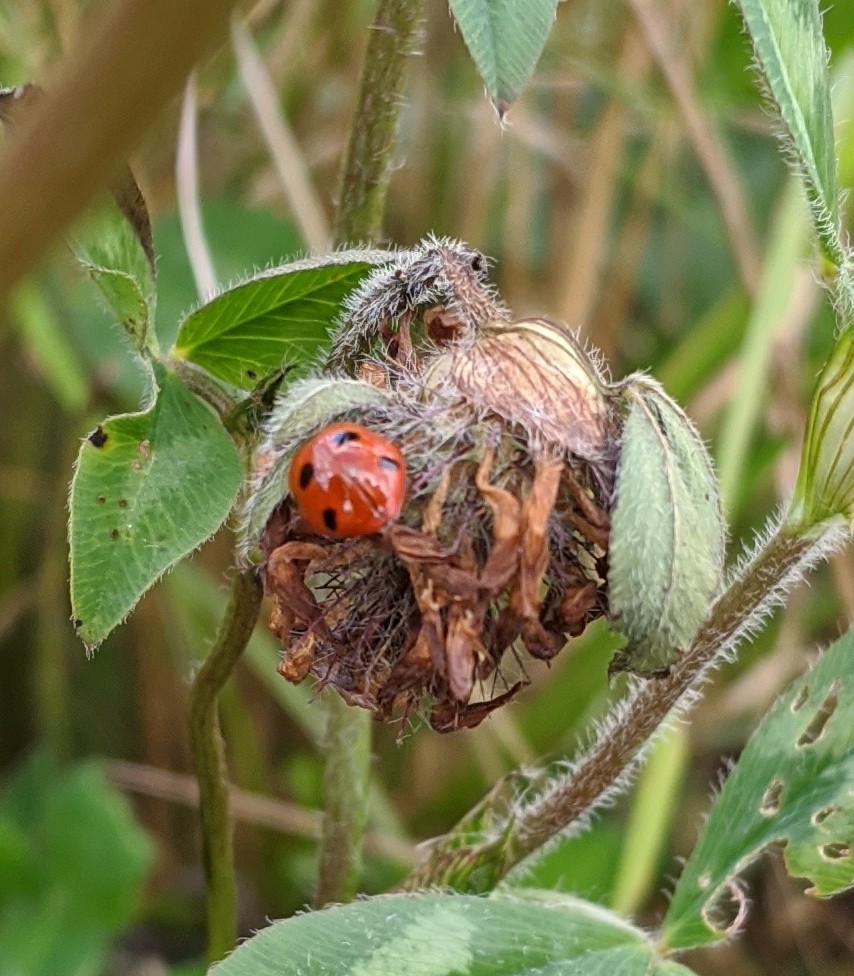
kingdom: Animalia
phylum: Arthropoda
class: Insecta
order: Coleoptera
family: Coccinellidae
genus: Coccinella
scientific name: Coccinella septempunctata
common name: Sevenspotted lady beetle
